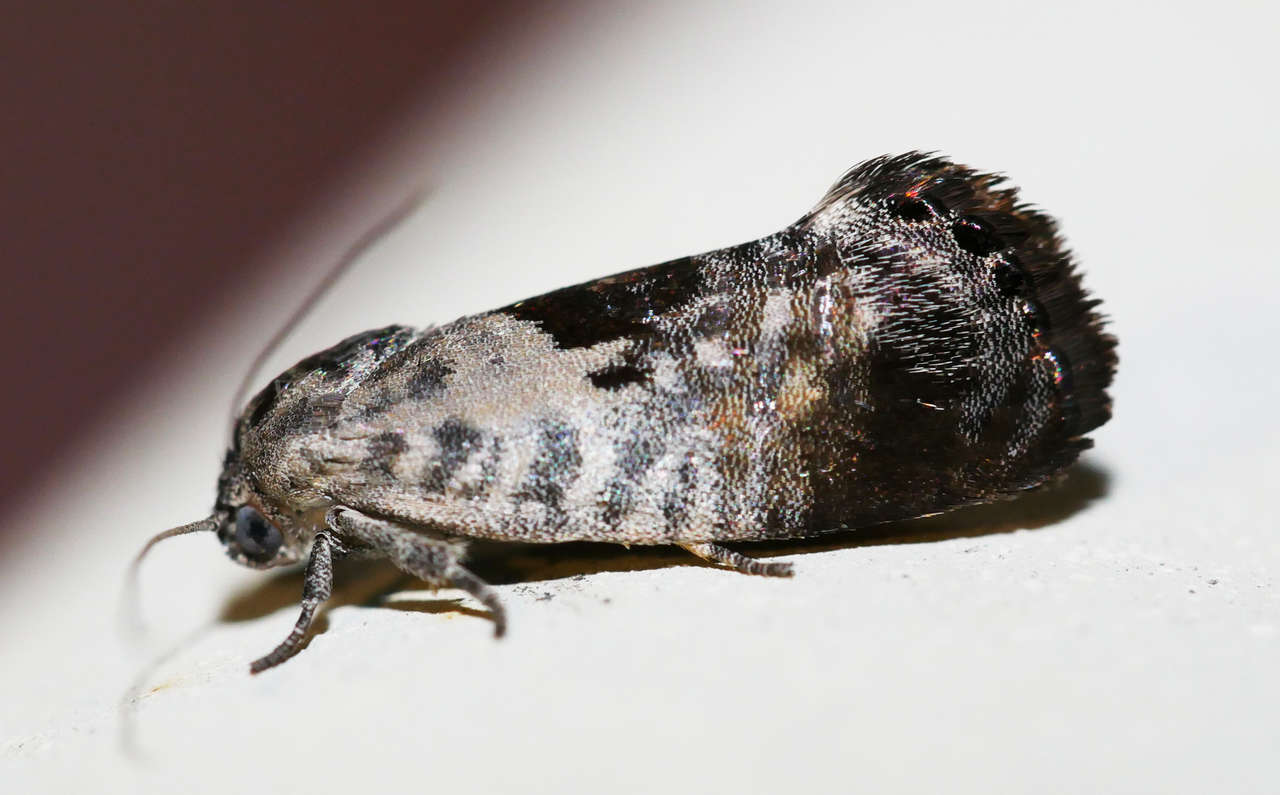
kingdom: Animalia
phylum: Arthropoda
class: Insecta
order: Lepidoptera
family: Depressariidae
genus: Eupselia
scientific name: Eupselia carpocapsella
